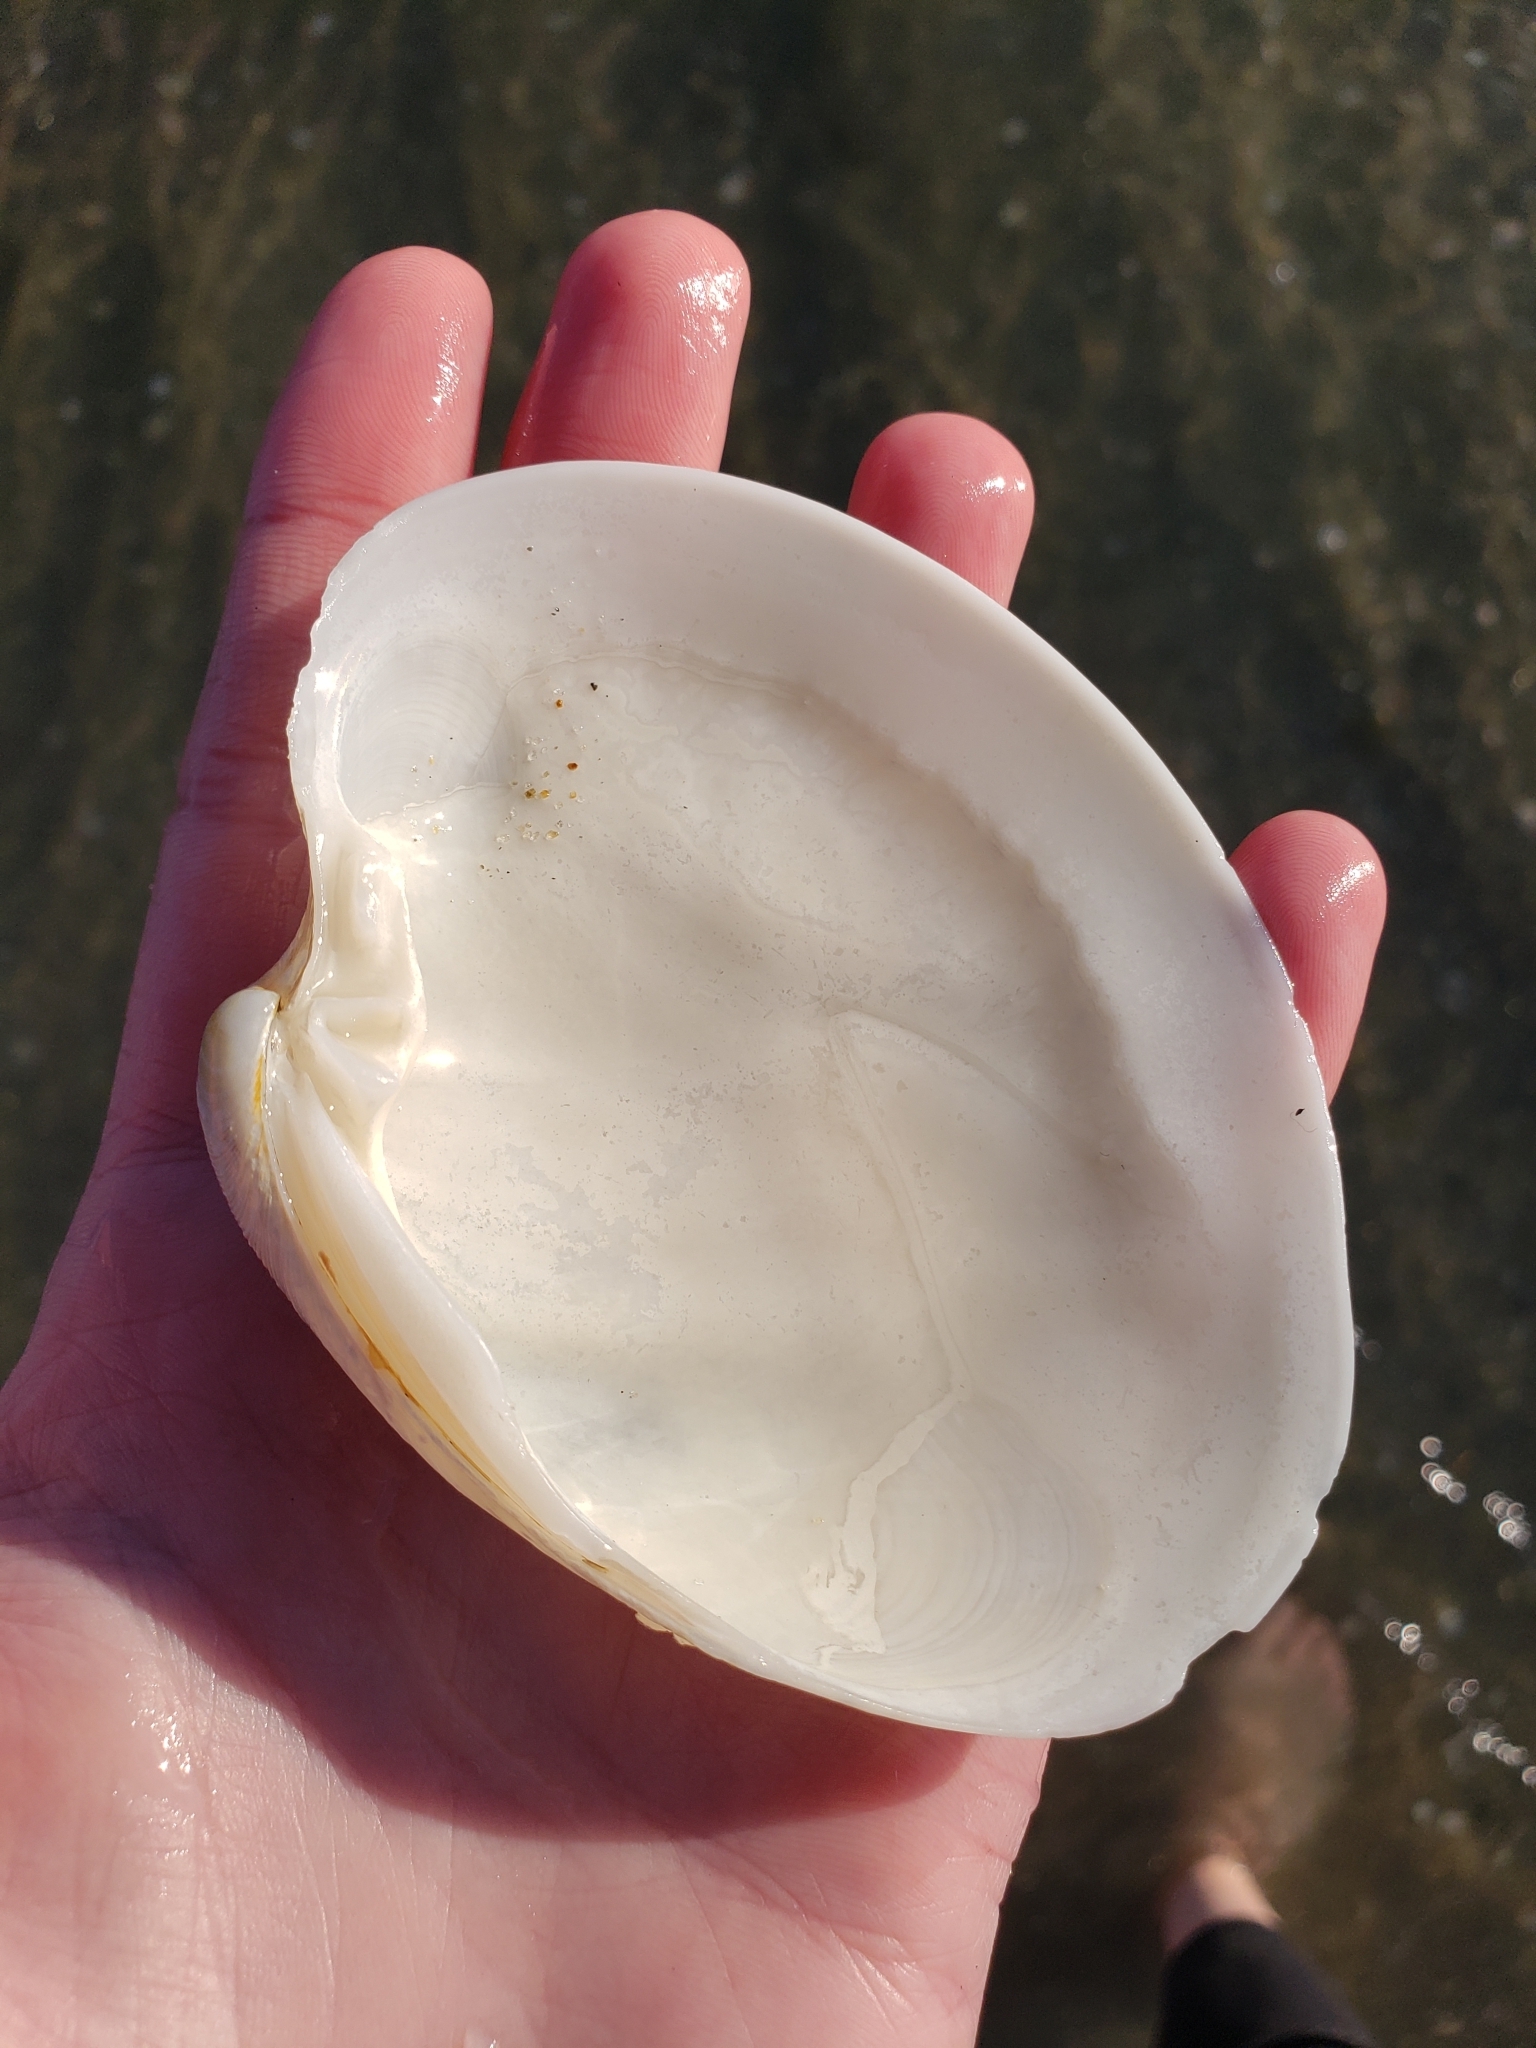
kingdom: Animalia
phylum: Mollusca
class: Bivalvia
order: Venerida
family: Veneridae
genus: Amiantis
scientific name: Amiantis callosa
